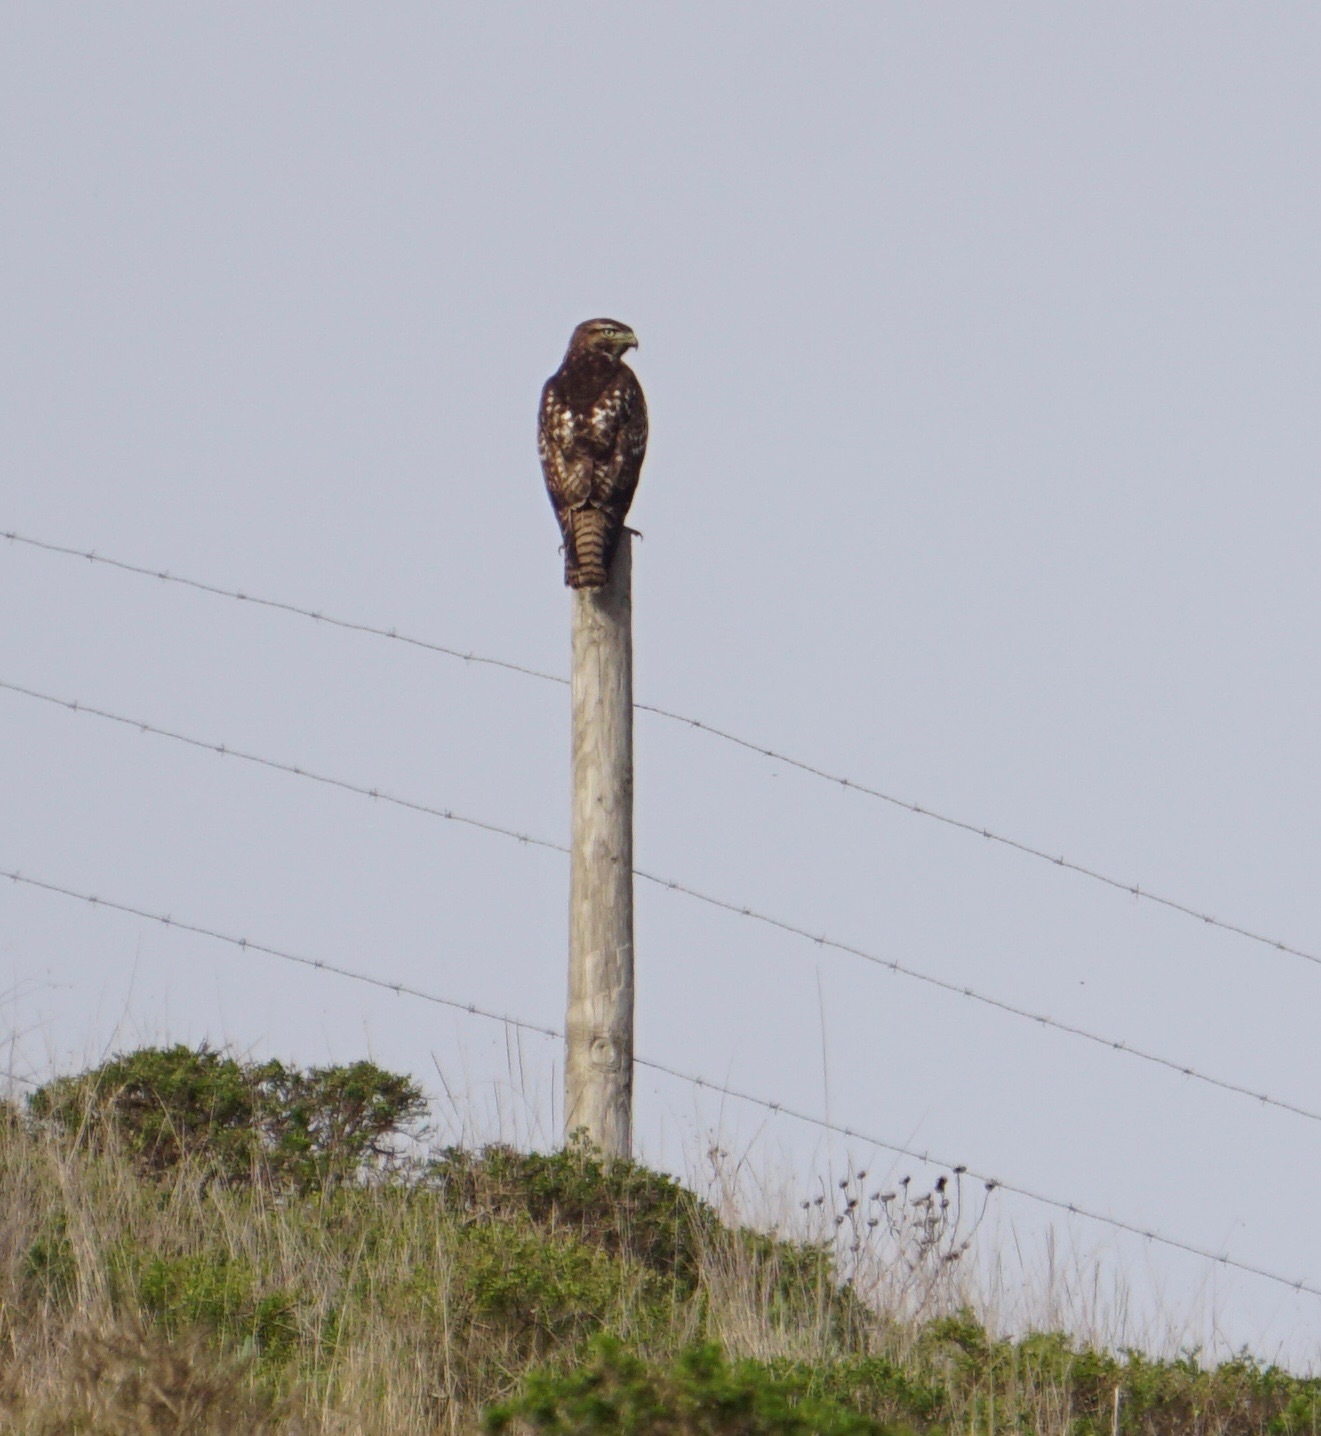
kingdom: Animalia
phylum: Chordata
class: Aves
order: Accipitriformes
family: Accipitridae
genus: Buteo
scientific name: Buteo jamaicensis
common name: Red-tailed hawk
